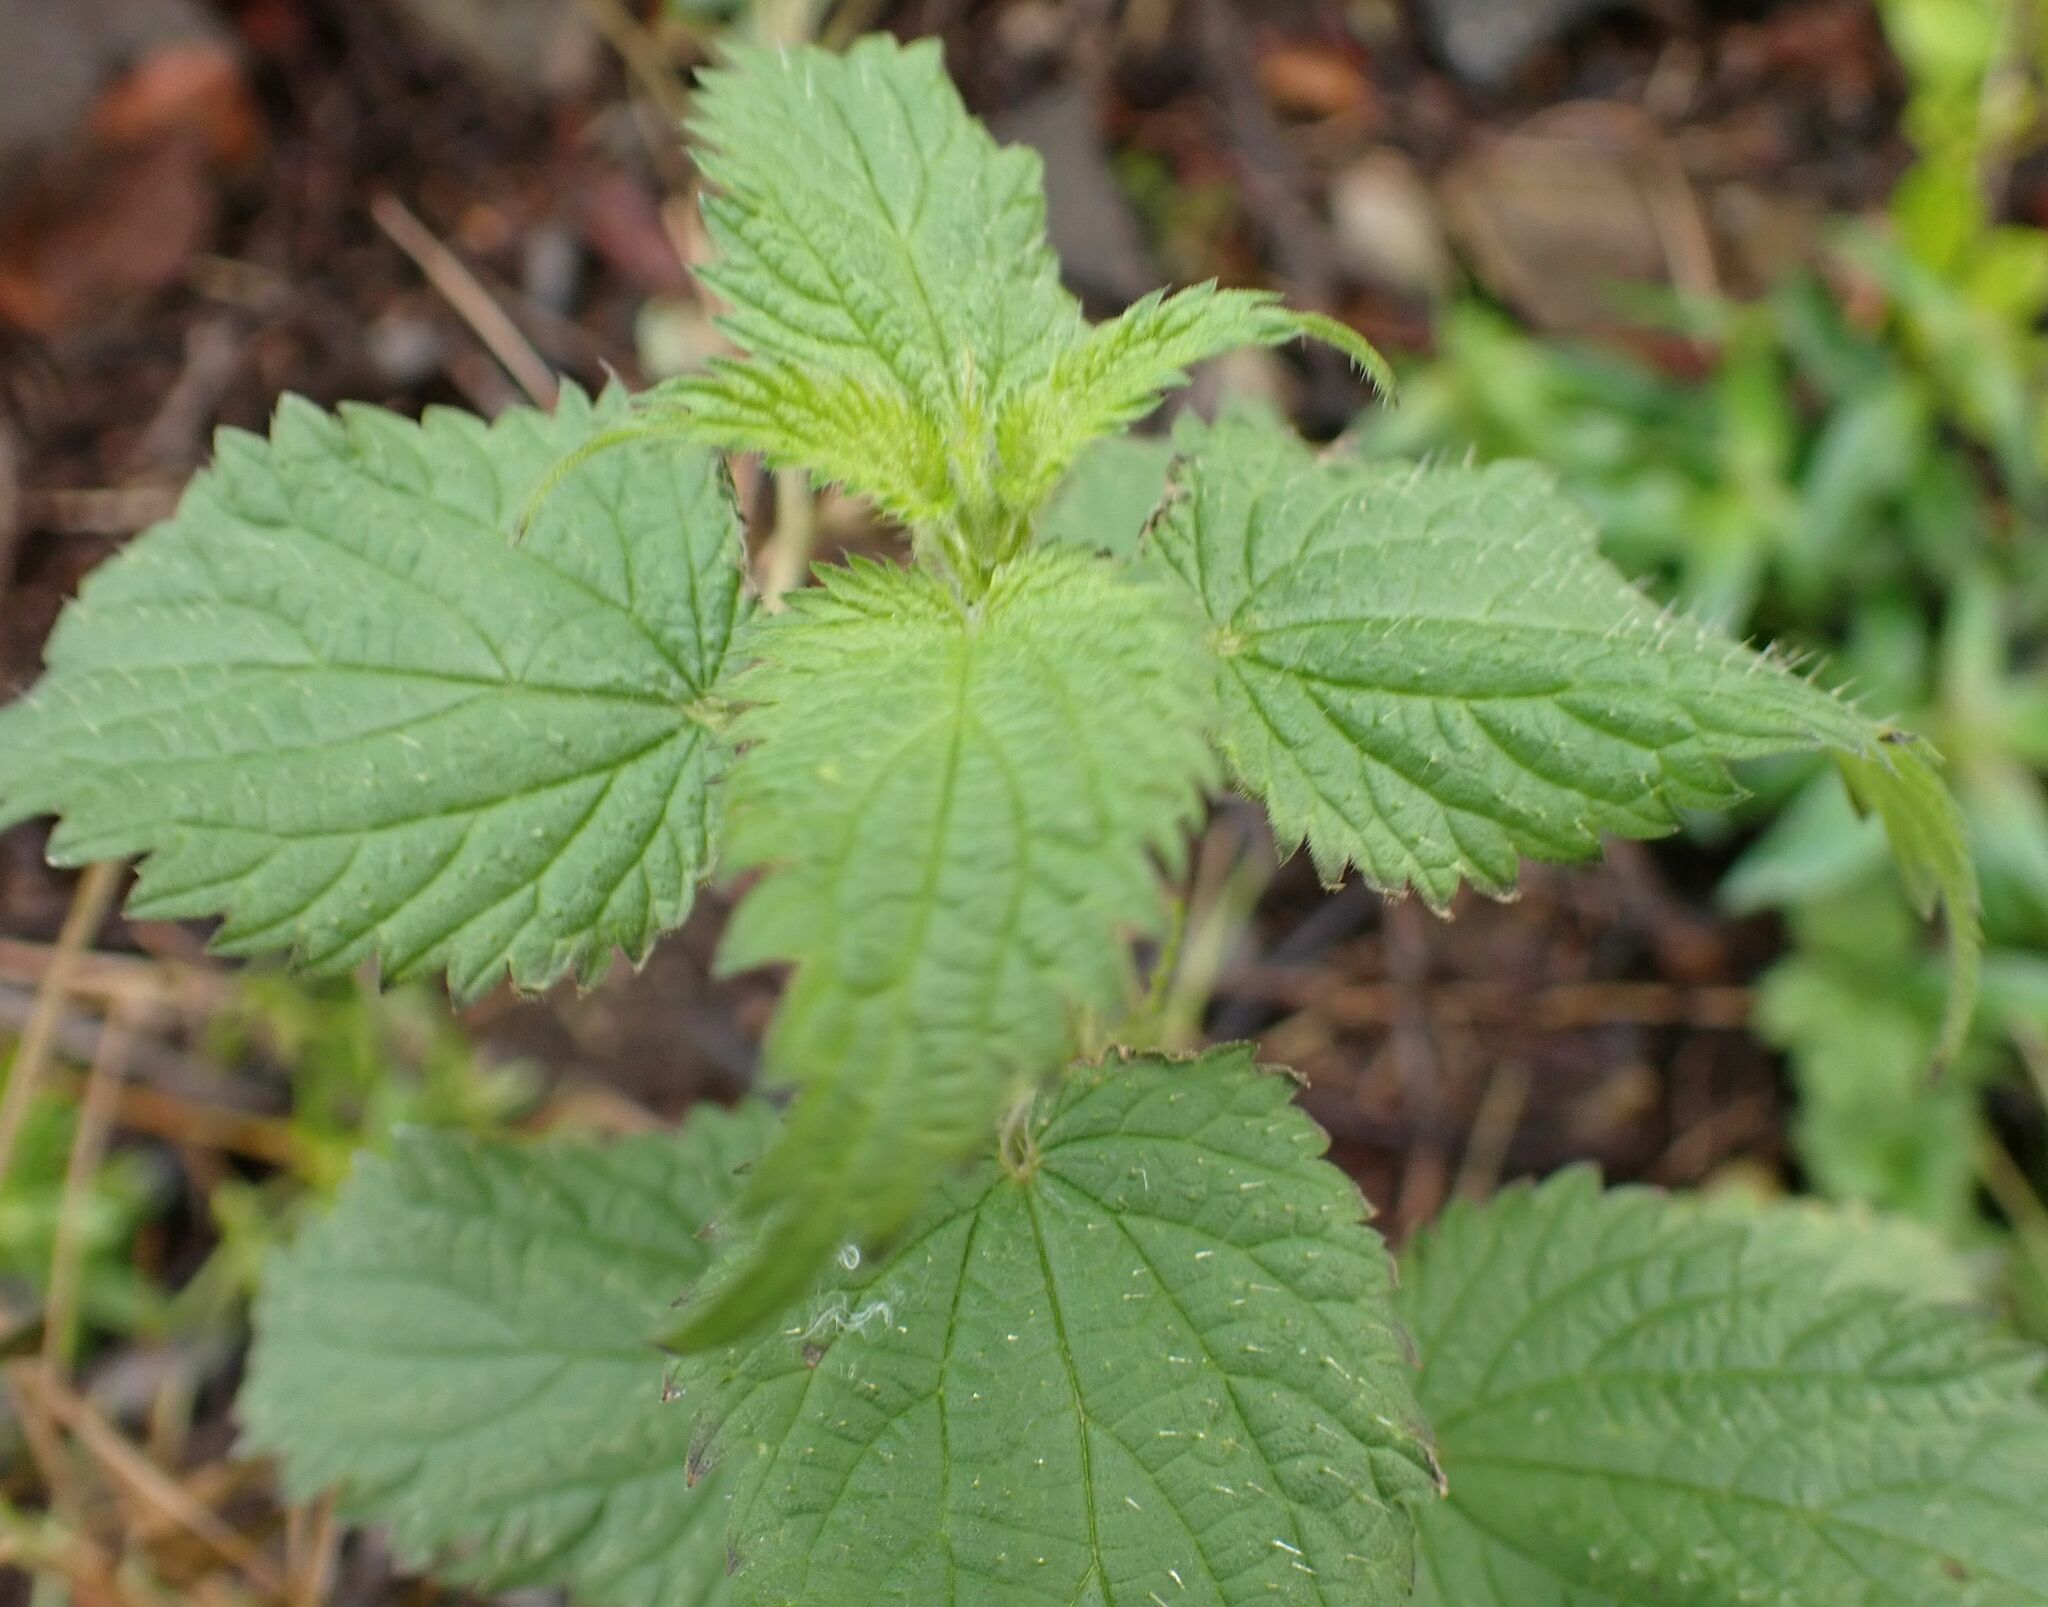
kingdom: Plantae
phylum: Tracheophyta
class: Magnoliopsida
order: Rosales
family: Urticaceae
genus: Urtica
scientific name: Urtica dioica
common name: Common nettle
